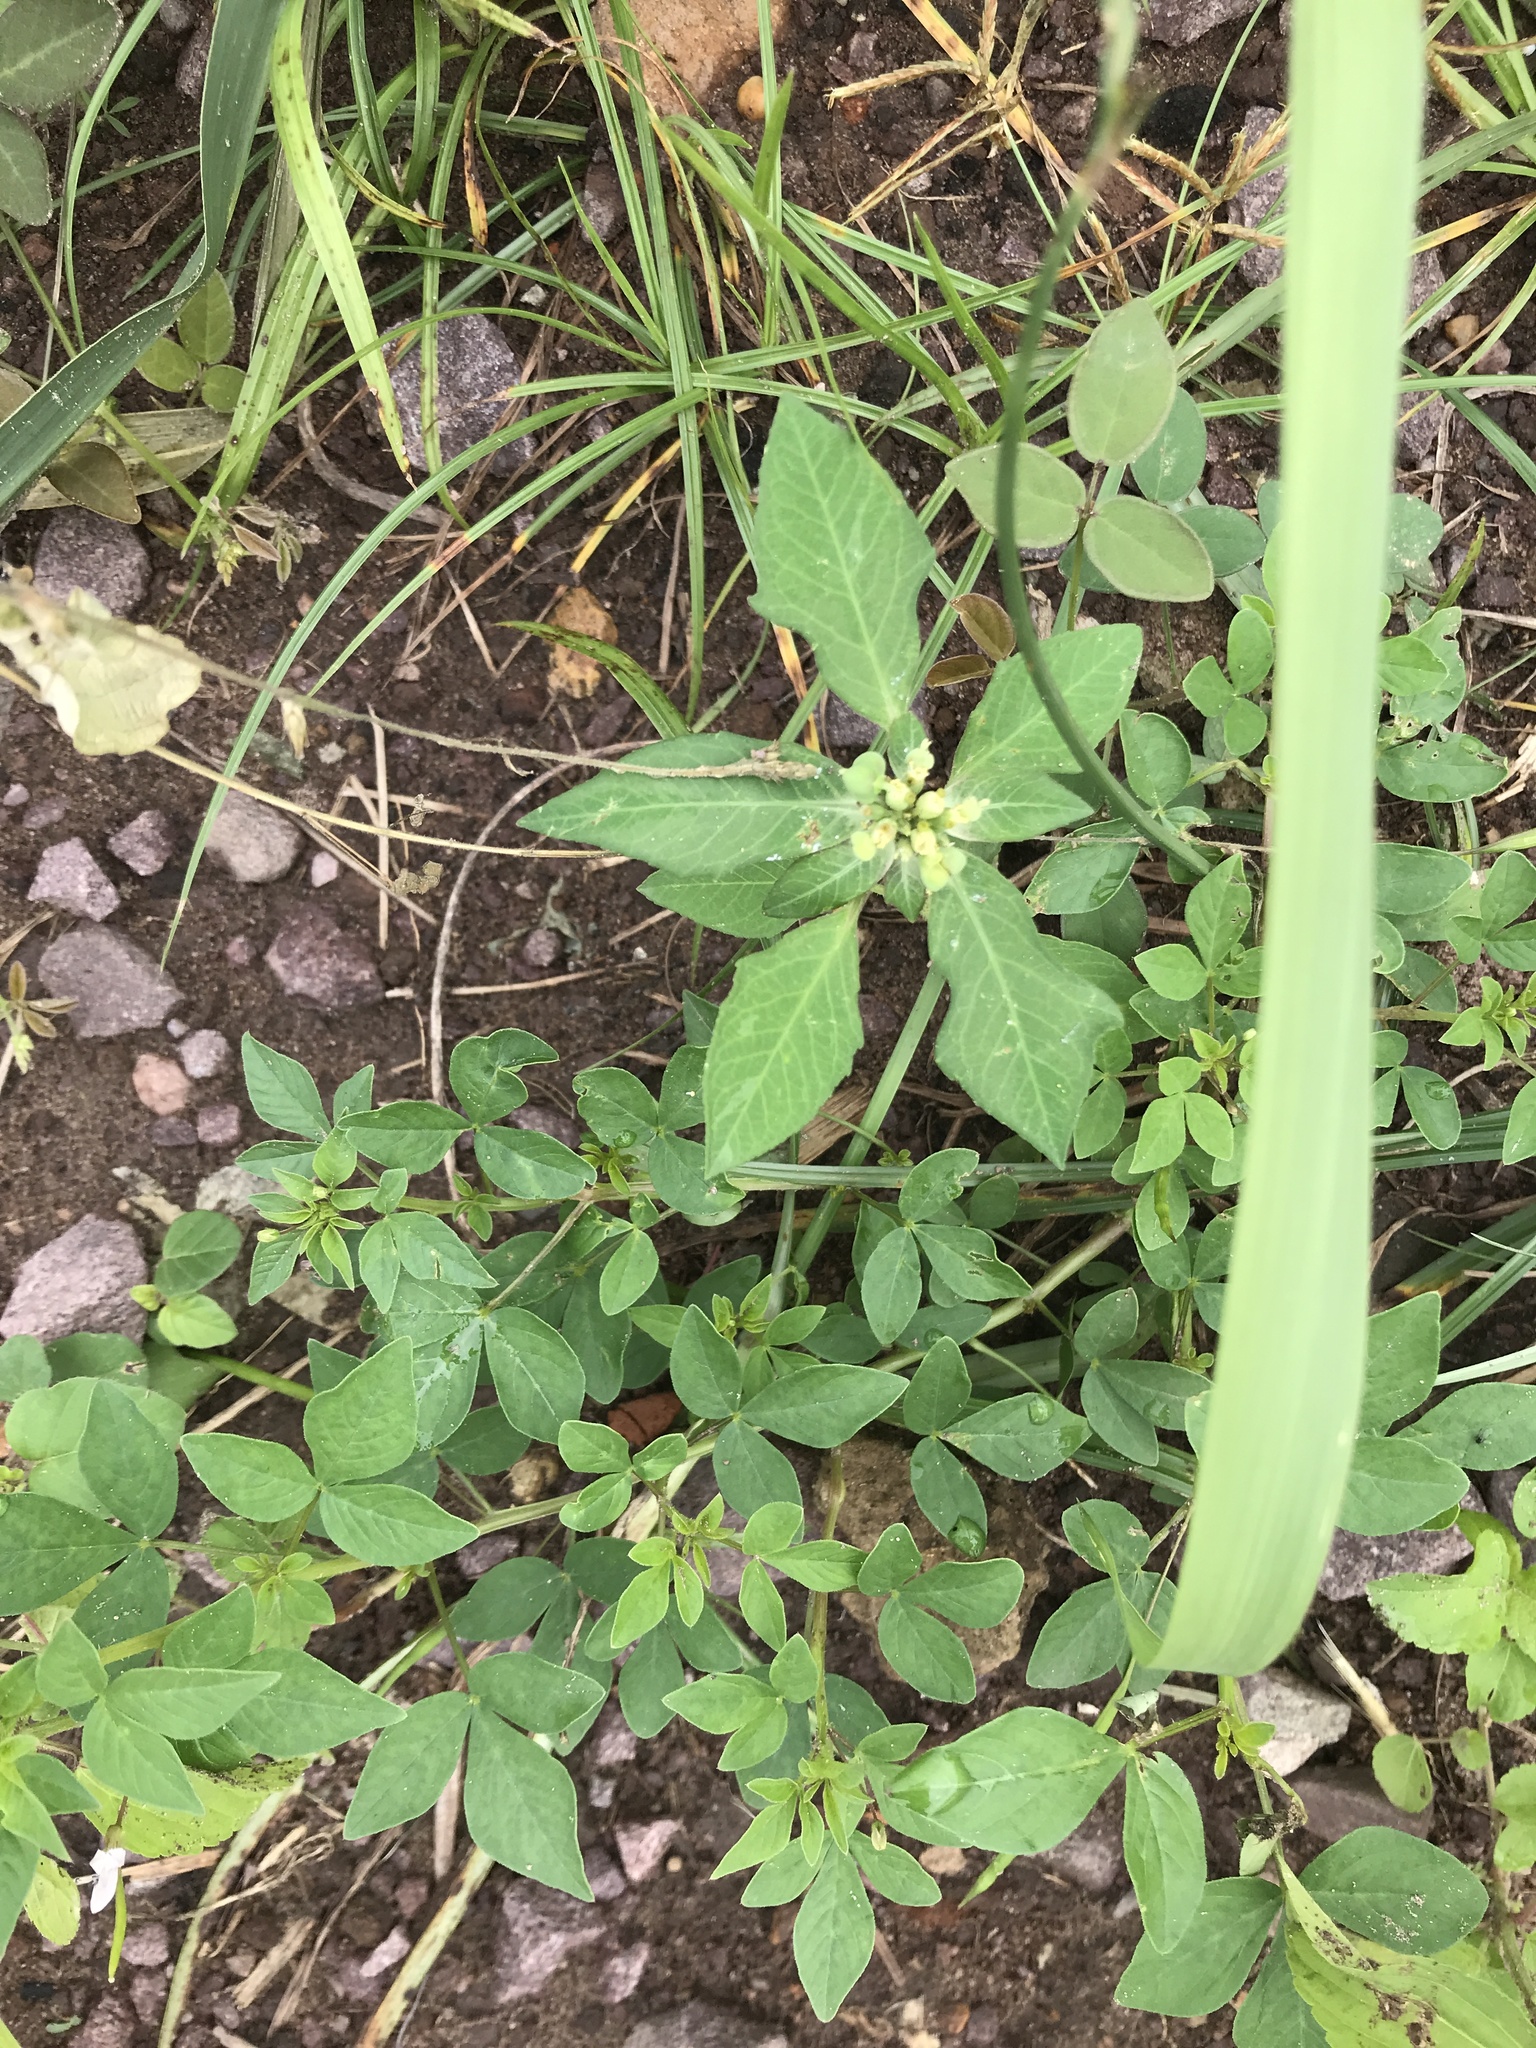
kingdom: Plantae
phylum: Tracheophyta
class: Magnoliopsida
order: Malpighiales
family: Euphorbiaceae
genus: Euphorbia
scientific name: Euphorbia heterophylla
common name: Mexican fireplant
